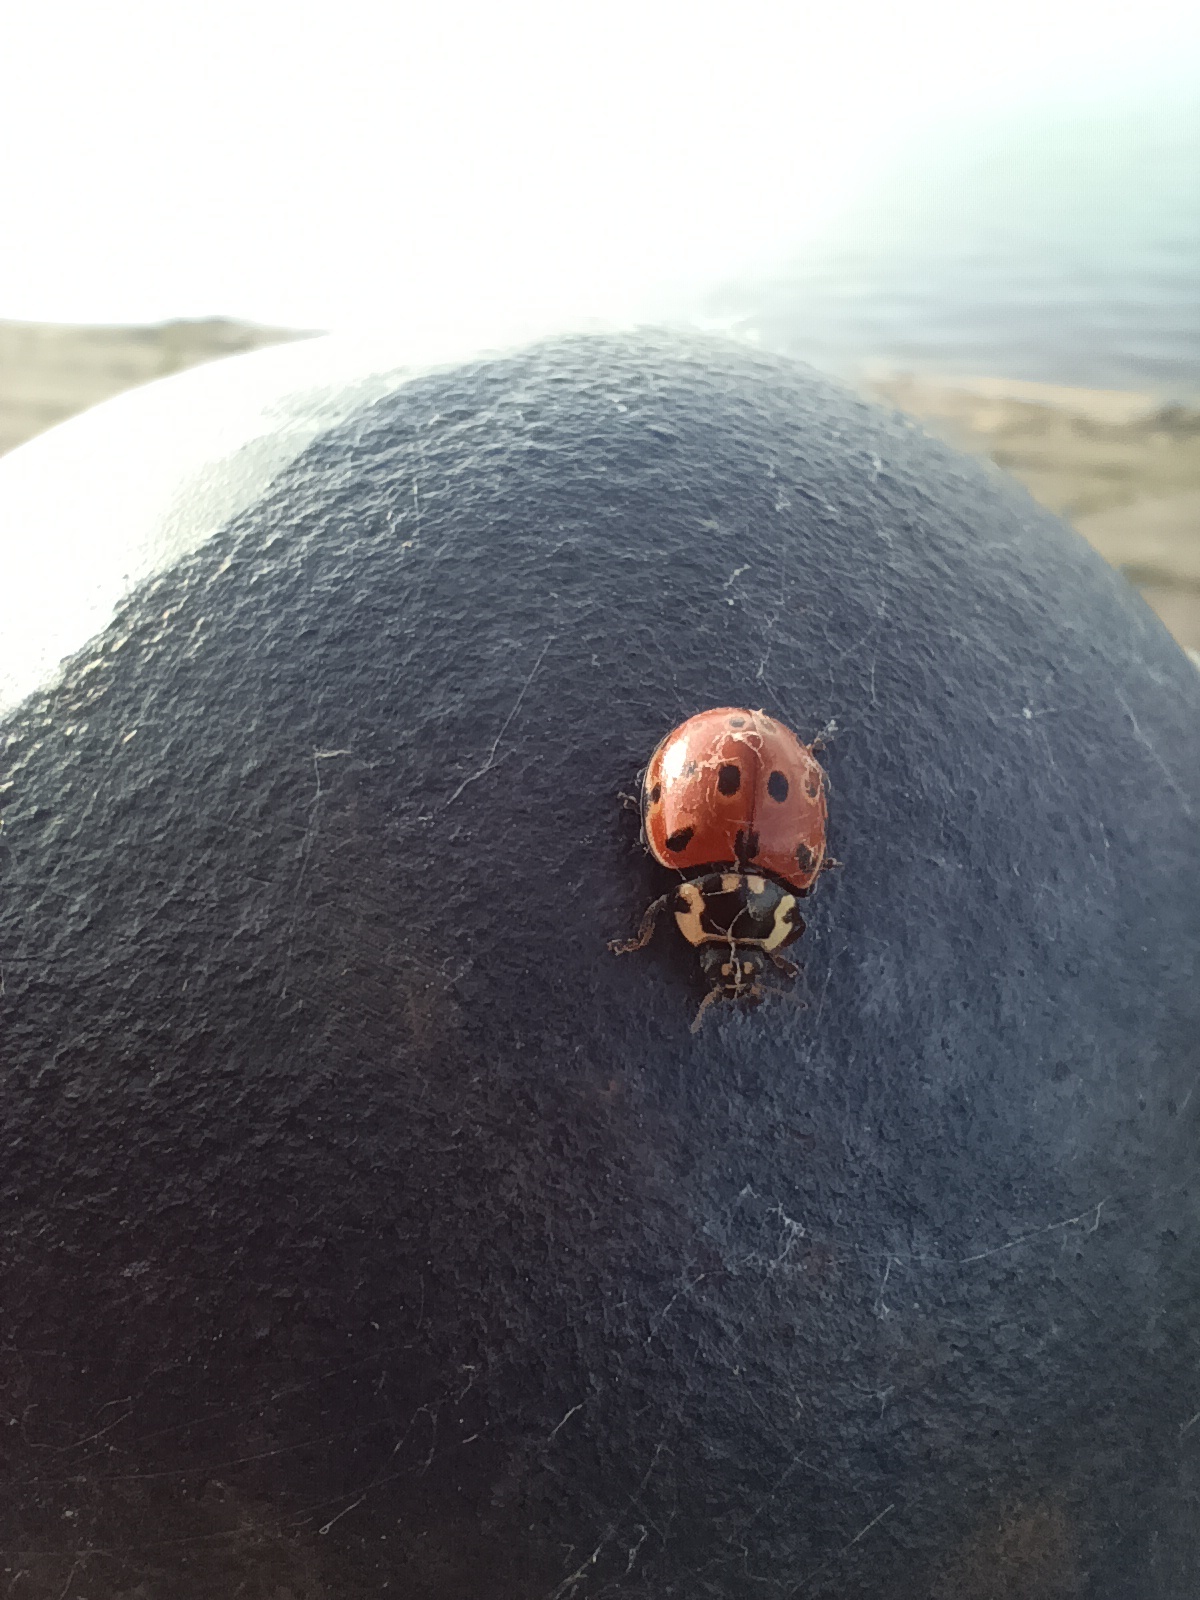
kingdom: Animalia
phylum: Arthropoda
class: Insecta
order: Coleoptera
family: Coccinellidae
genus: Anatis
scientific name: Anatis ocellata
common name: Eyed ladybird
